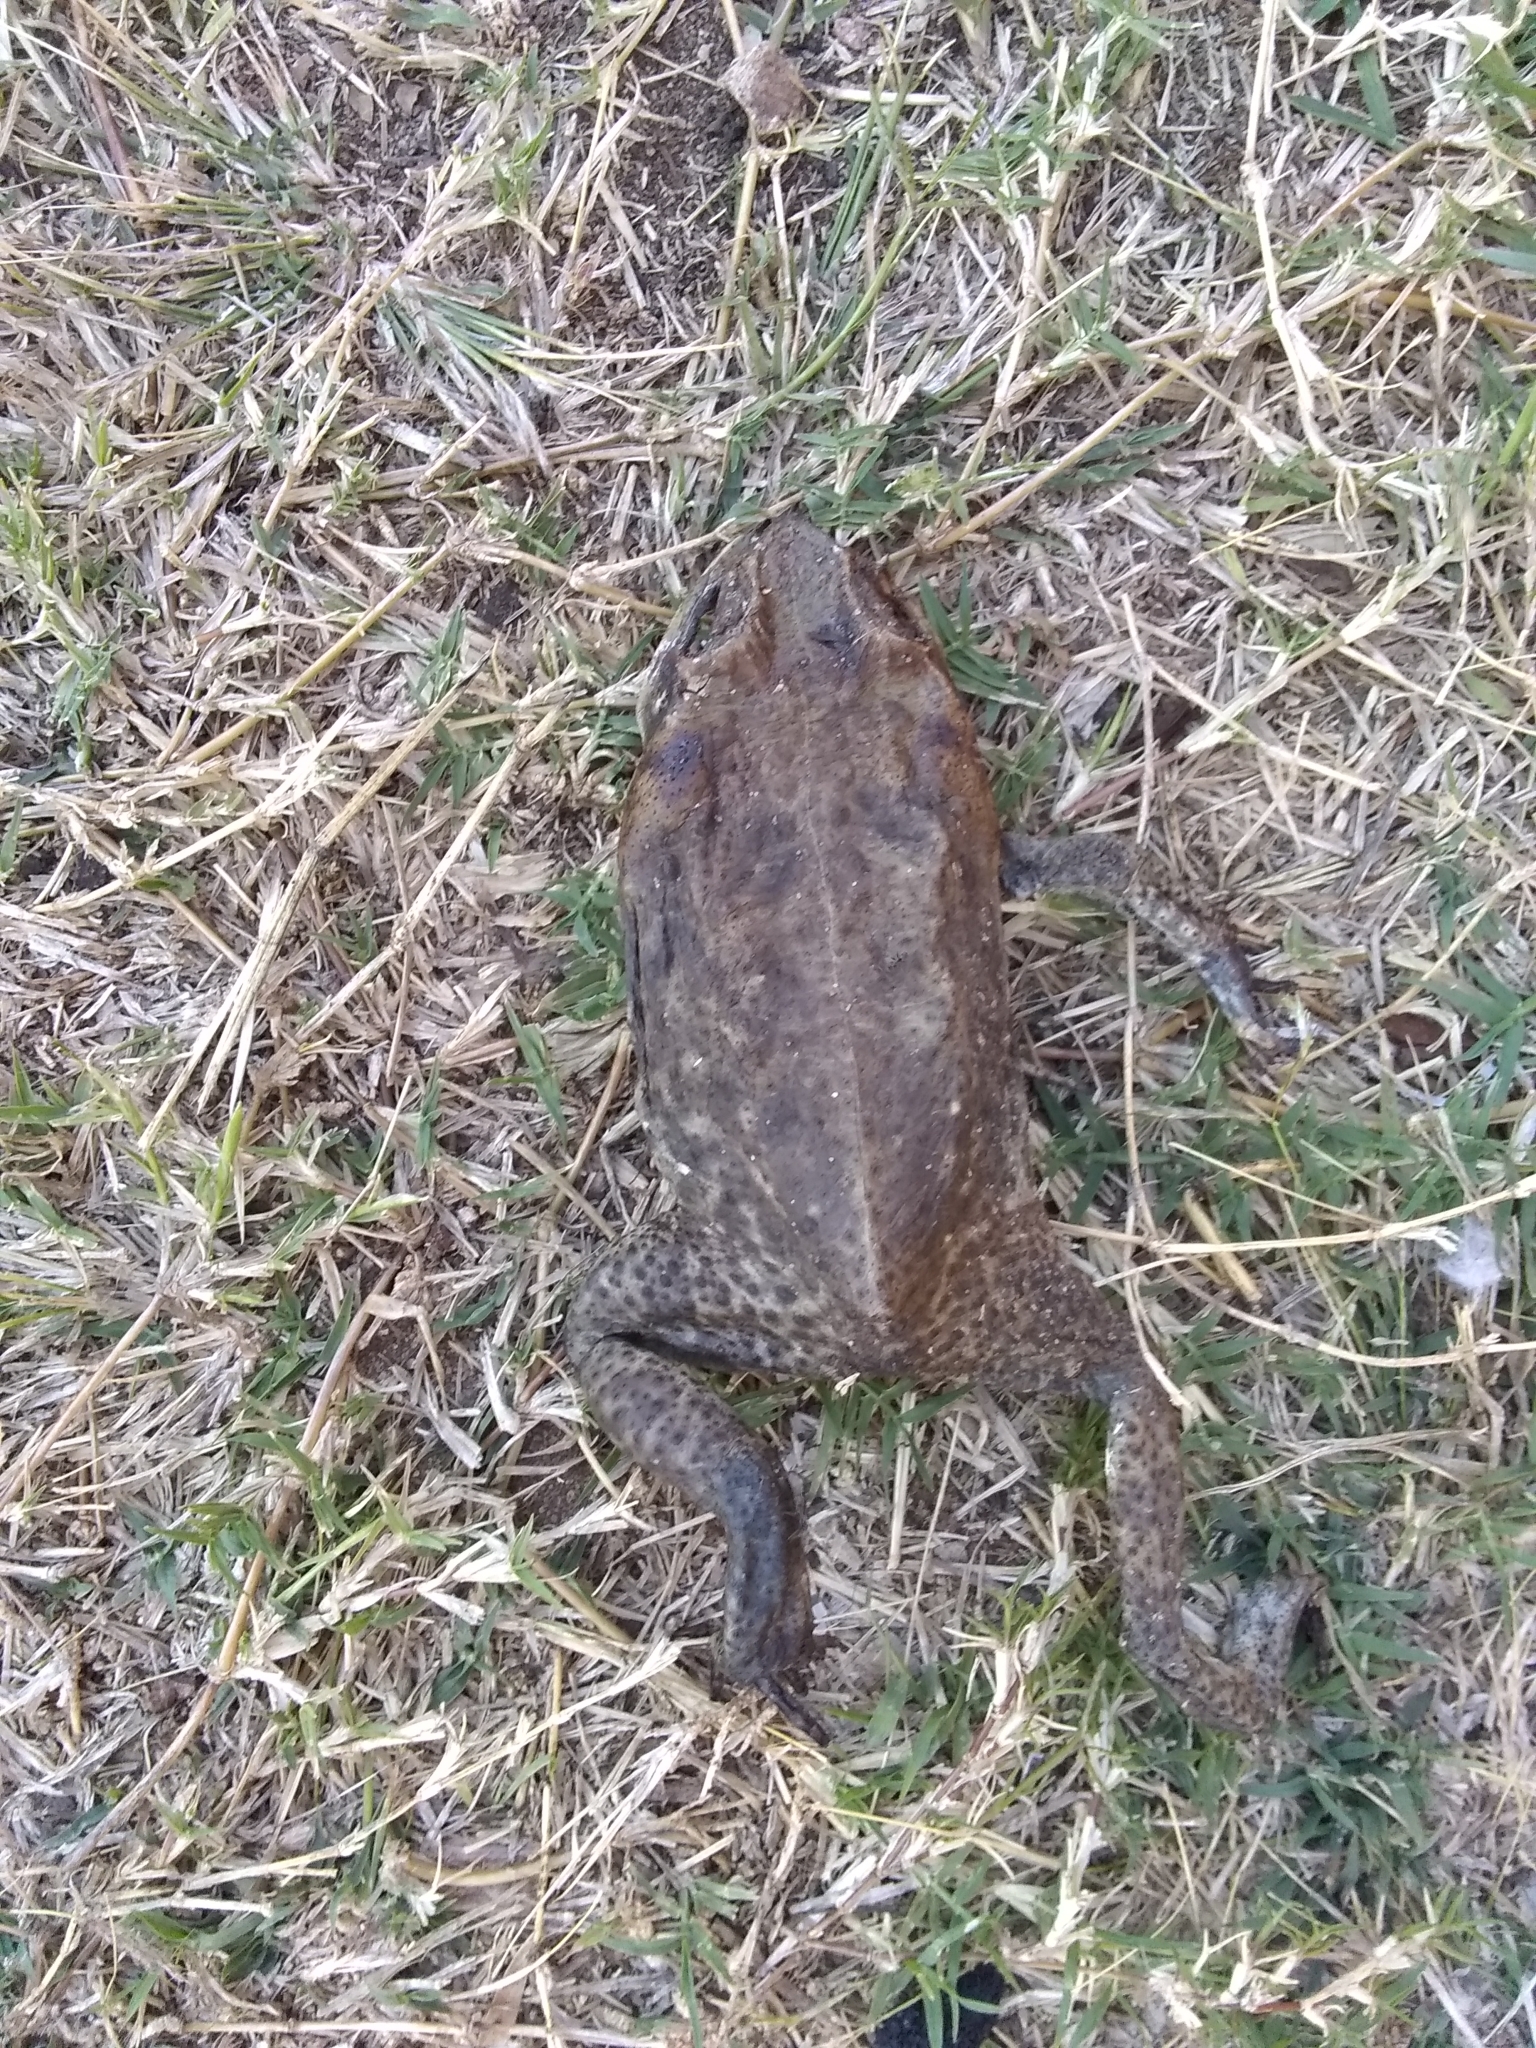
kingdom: Animalia
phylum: Chordata
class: Amphibia
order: Anura
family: Bufonidae
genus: Rhinella
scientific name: Rhinella marina
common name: Cane toad
